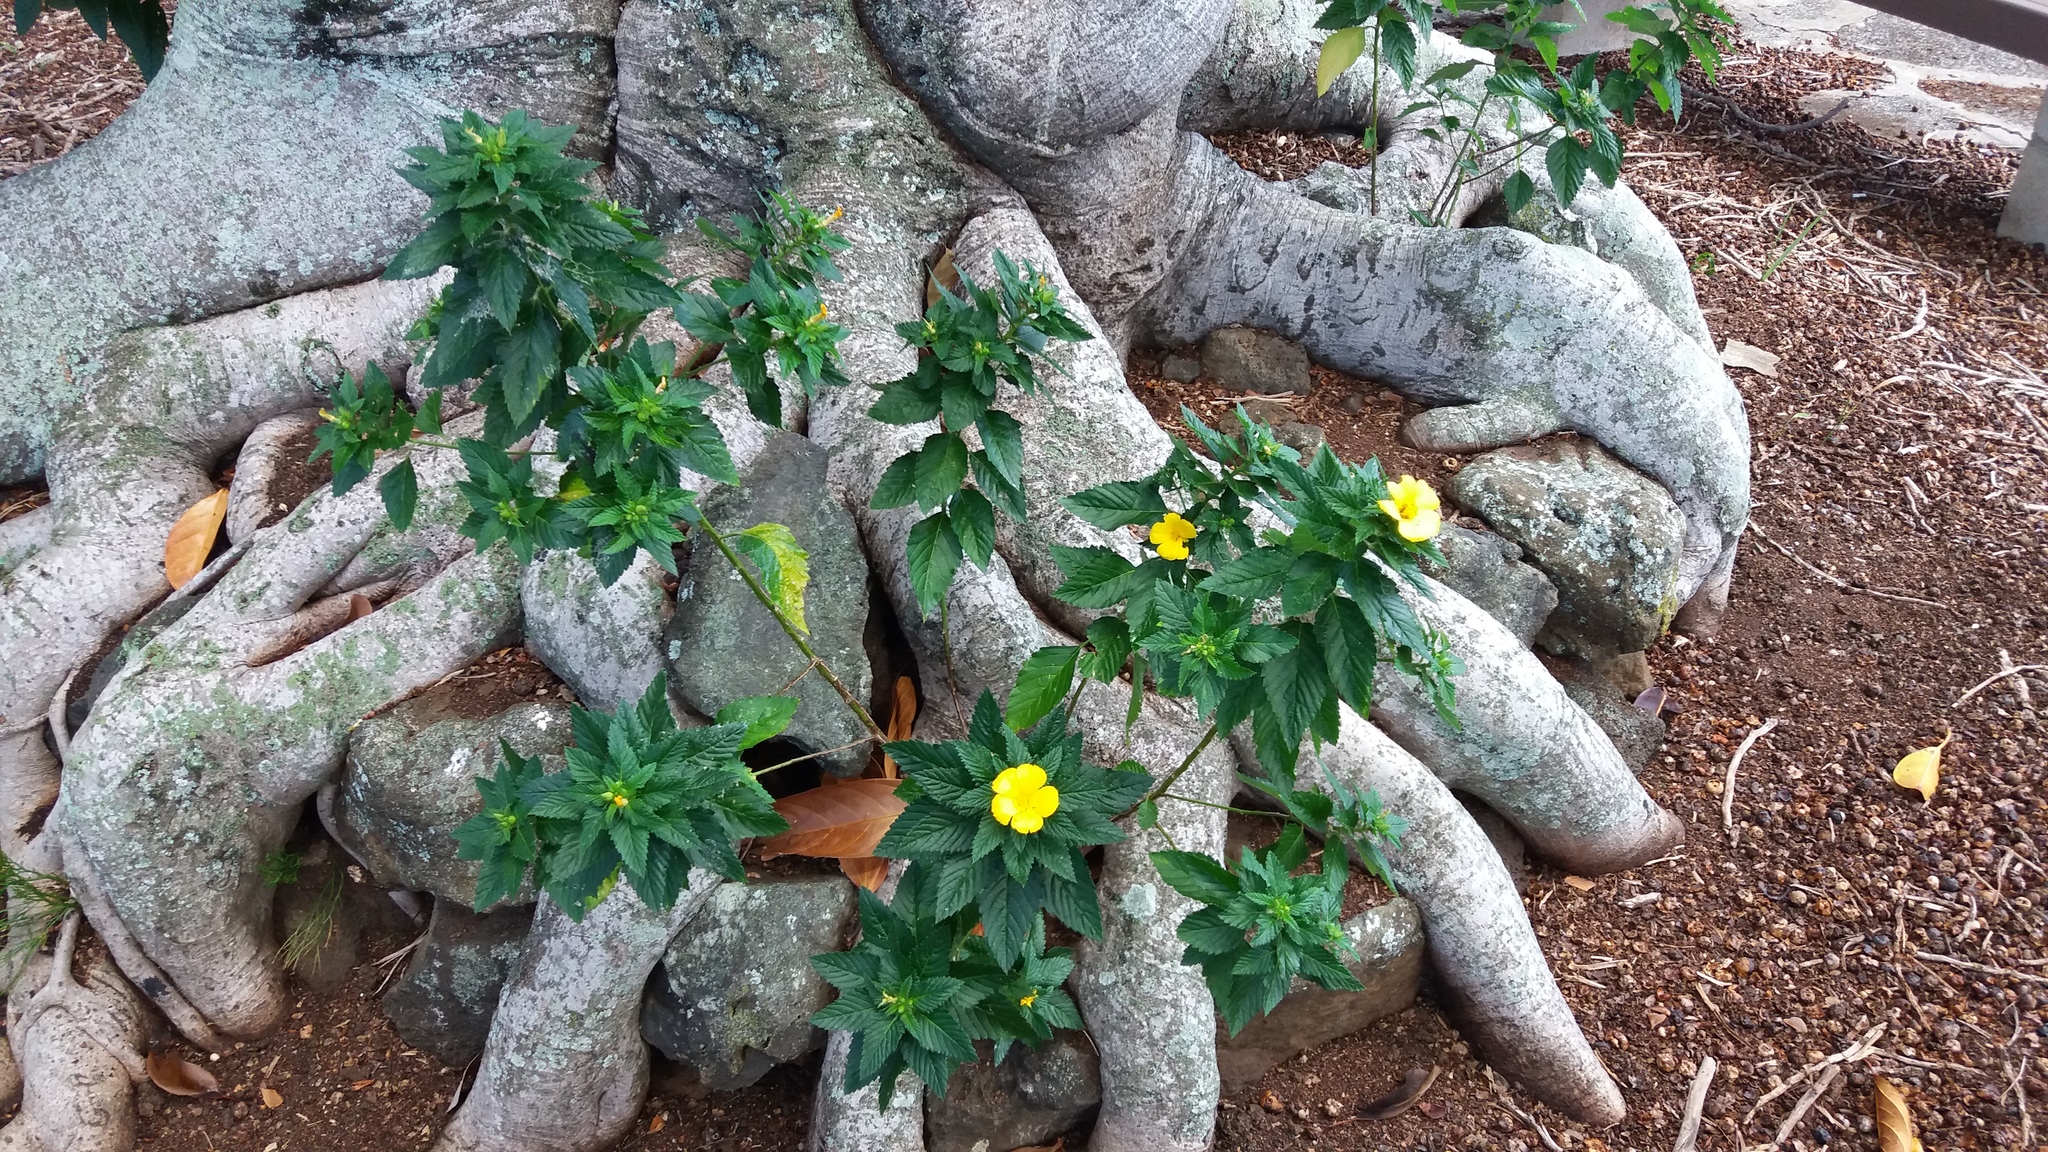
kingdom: Plantae
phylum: Tracheophyta
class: Magnoliopsida
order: Malpighiales
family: Turneraceae
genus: Turnera
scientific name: Turnera ulmifolia
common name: Ramgoat dashalong
